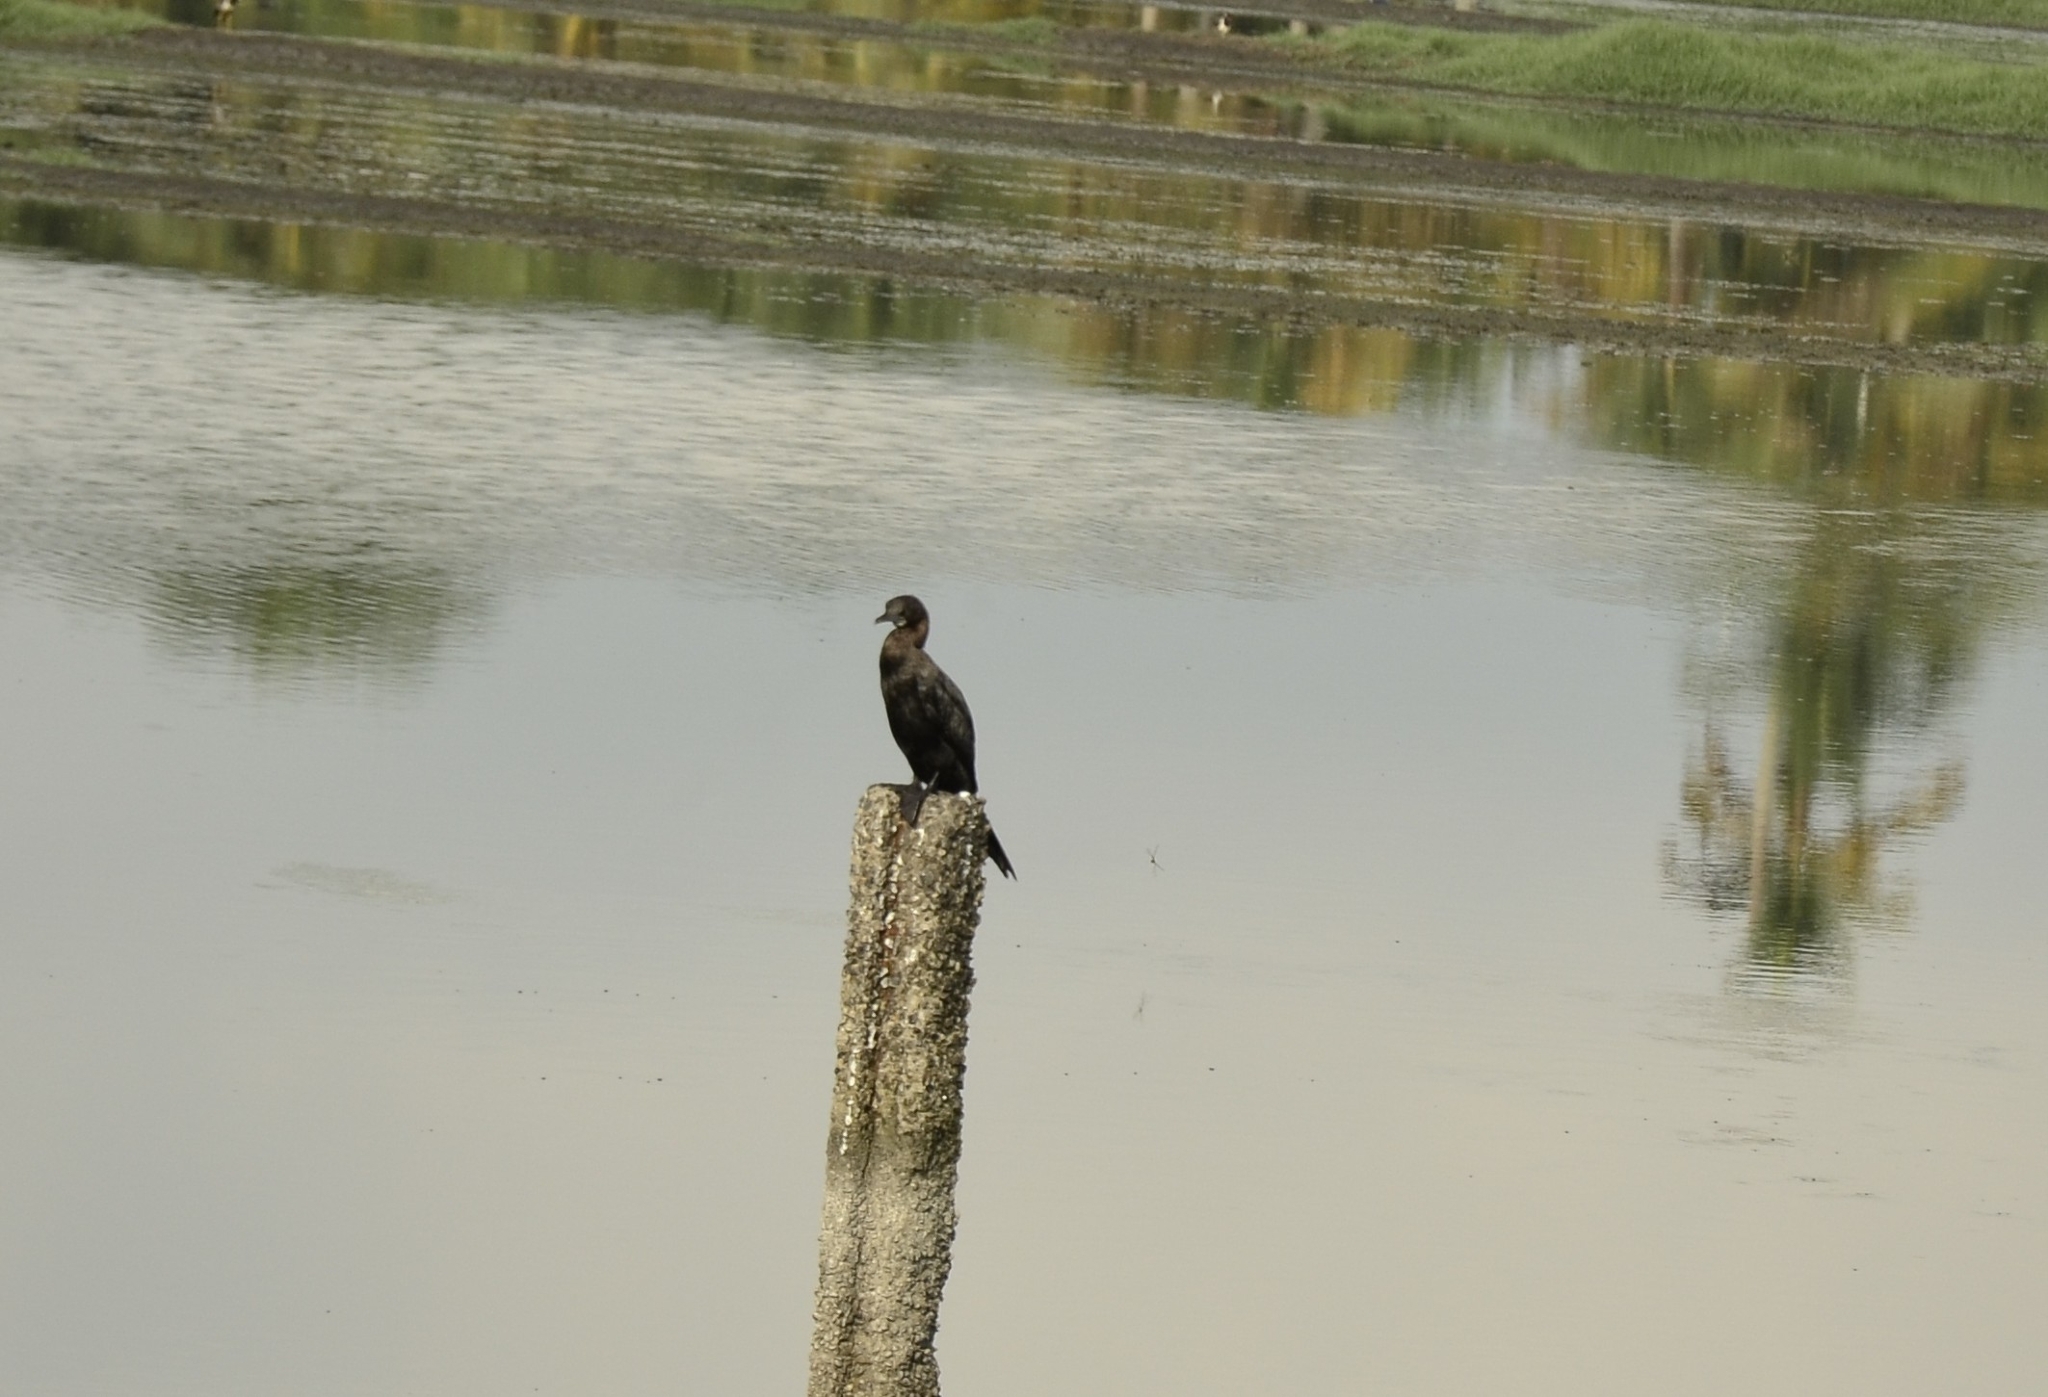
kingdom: Animalia
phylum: Chordata
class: Aves
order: Suliformes
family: Phalacrocoracidae
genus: Microcarbo
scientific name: Microcarbo niger
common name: Little cormorant
